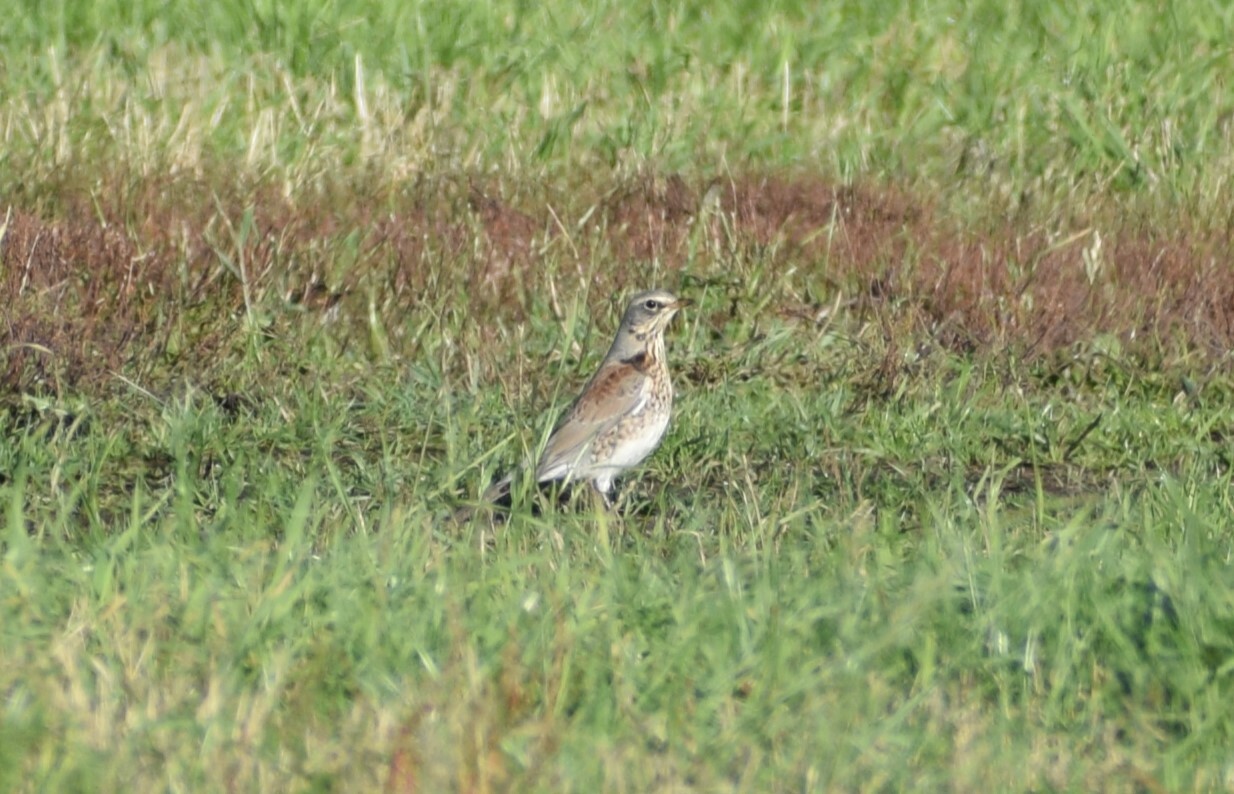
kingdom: Animalia
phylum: Chordata
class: Aves
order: Passeriformes
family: Turdidae
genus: Turdus
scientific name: Turdus pilaris
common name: Fieldfare
